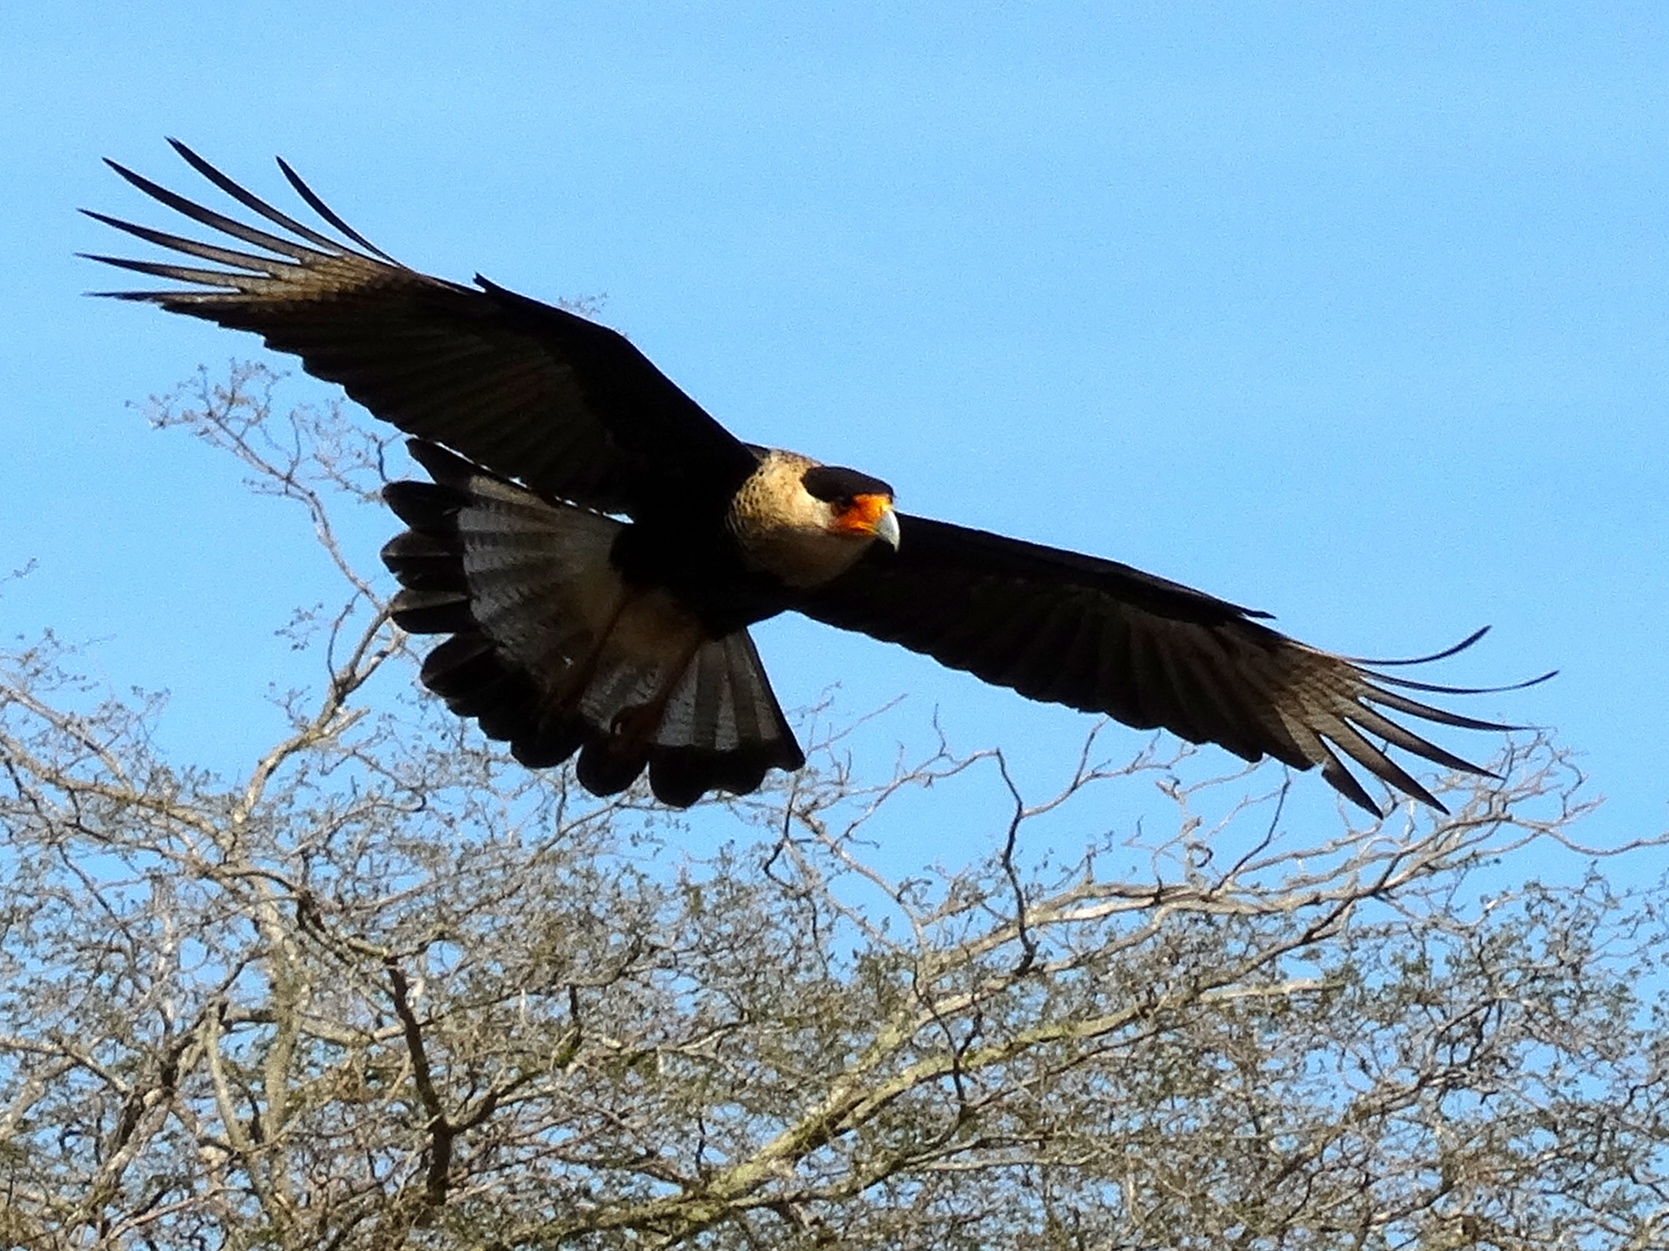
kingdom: Animalia
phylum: Chordata
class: Aves
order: Falconiformes
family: Falconidae
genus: Caracara
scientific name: Caracara plancus
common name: Southern caracara
